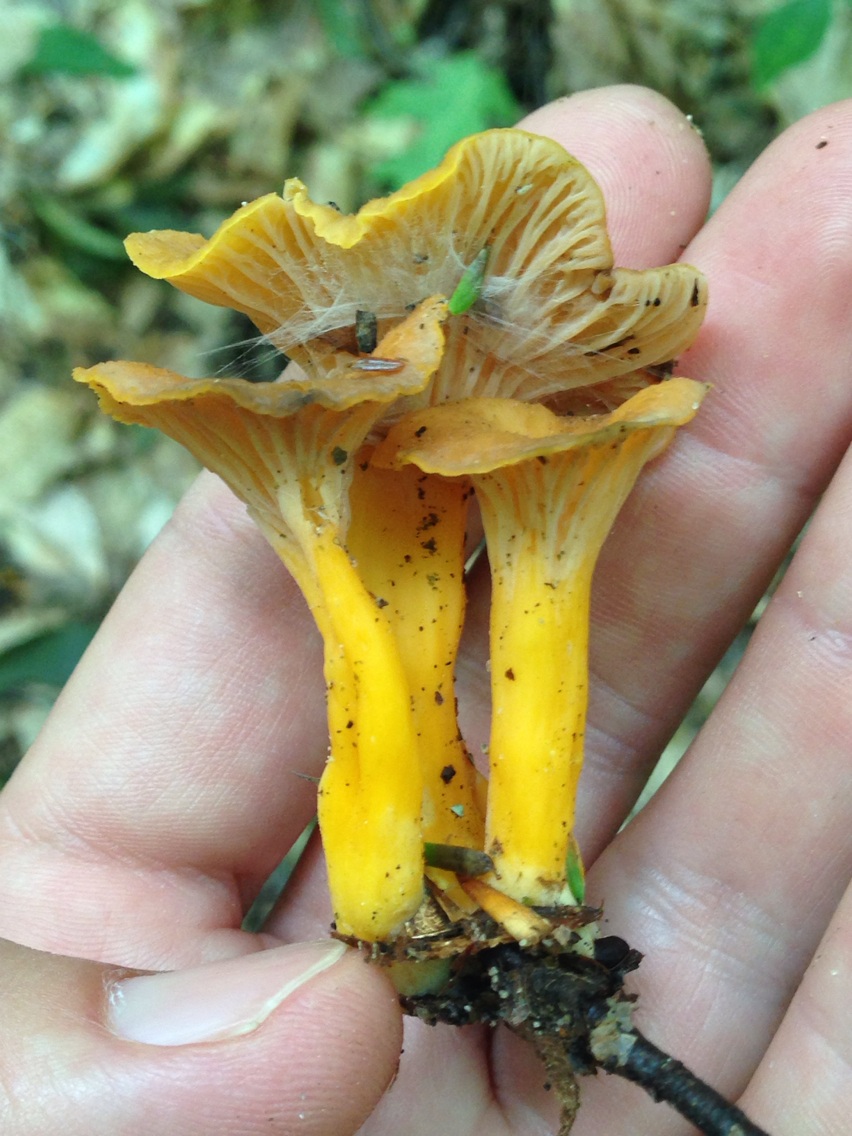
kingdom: Fungi
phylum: Basidiomycota
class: Agaricomycetes
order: Cantharellales
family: Hydnaceae
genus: Craterellus
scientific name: Craterellus tubaeformis
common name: Yellowfoot
